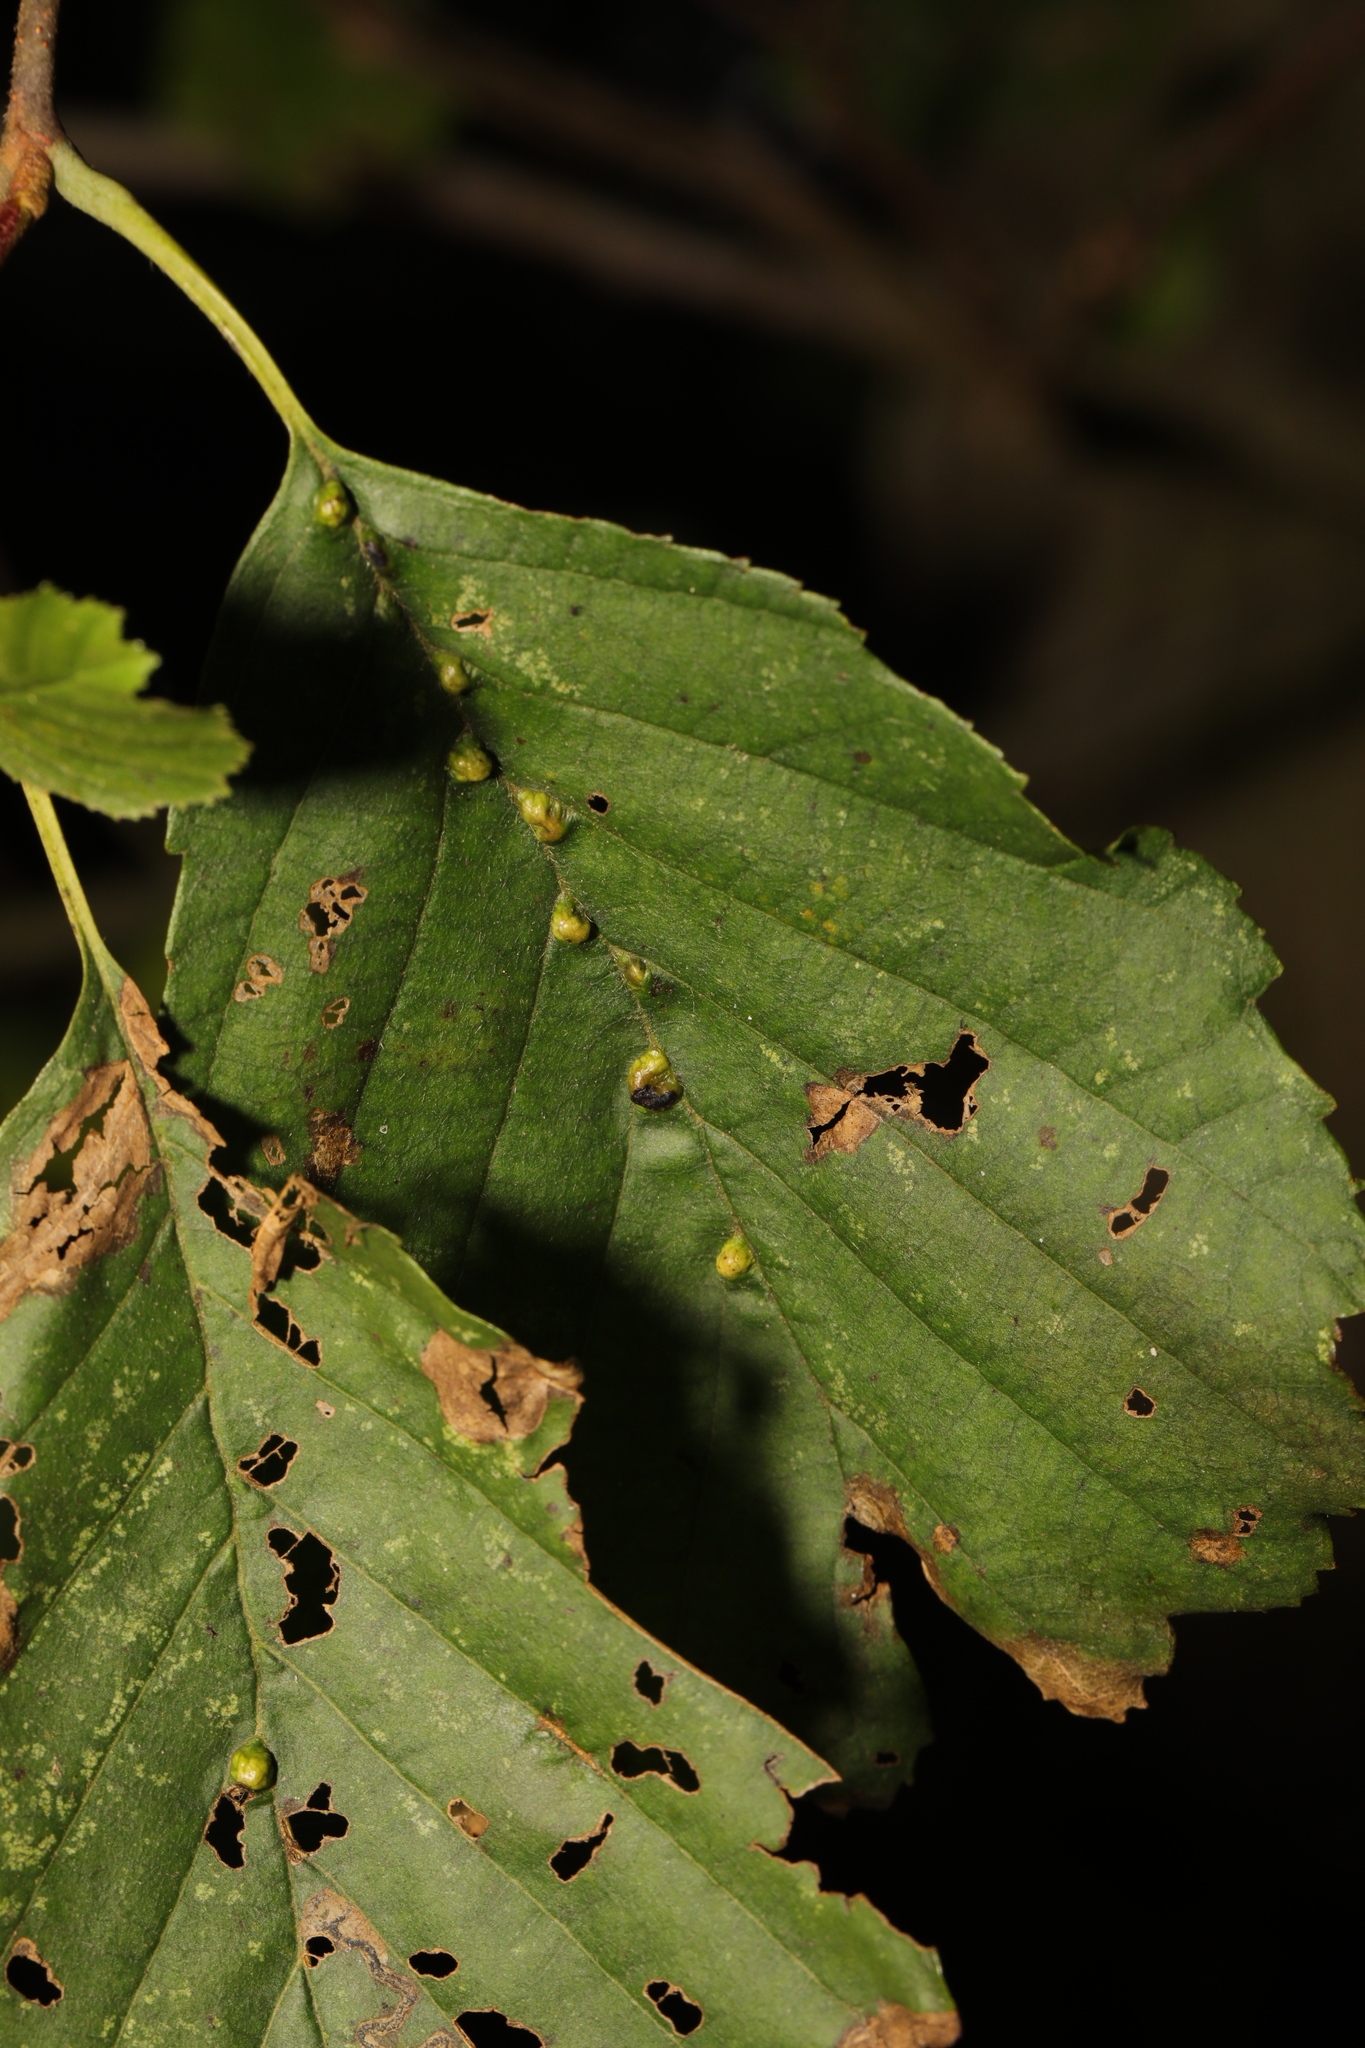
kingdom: Animalia
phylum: Arthropoda
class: Arachnida
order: Trombidiformes
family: Eriophyidae
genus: Eriophyes
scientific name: Eriophyes inangulis
